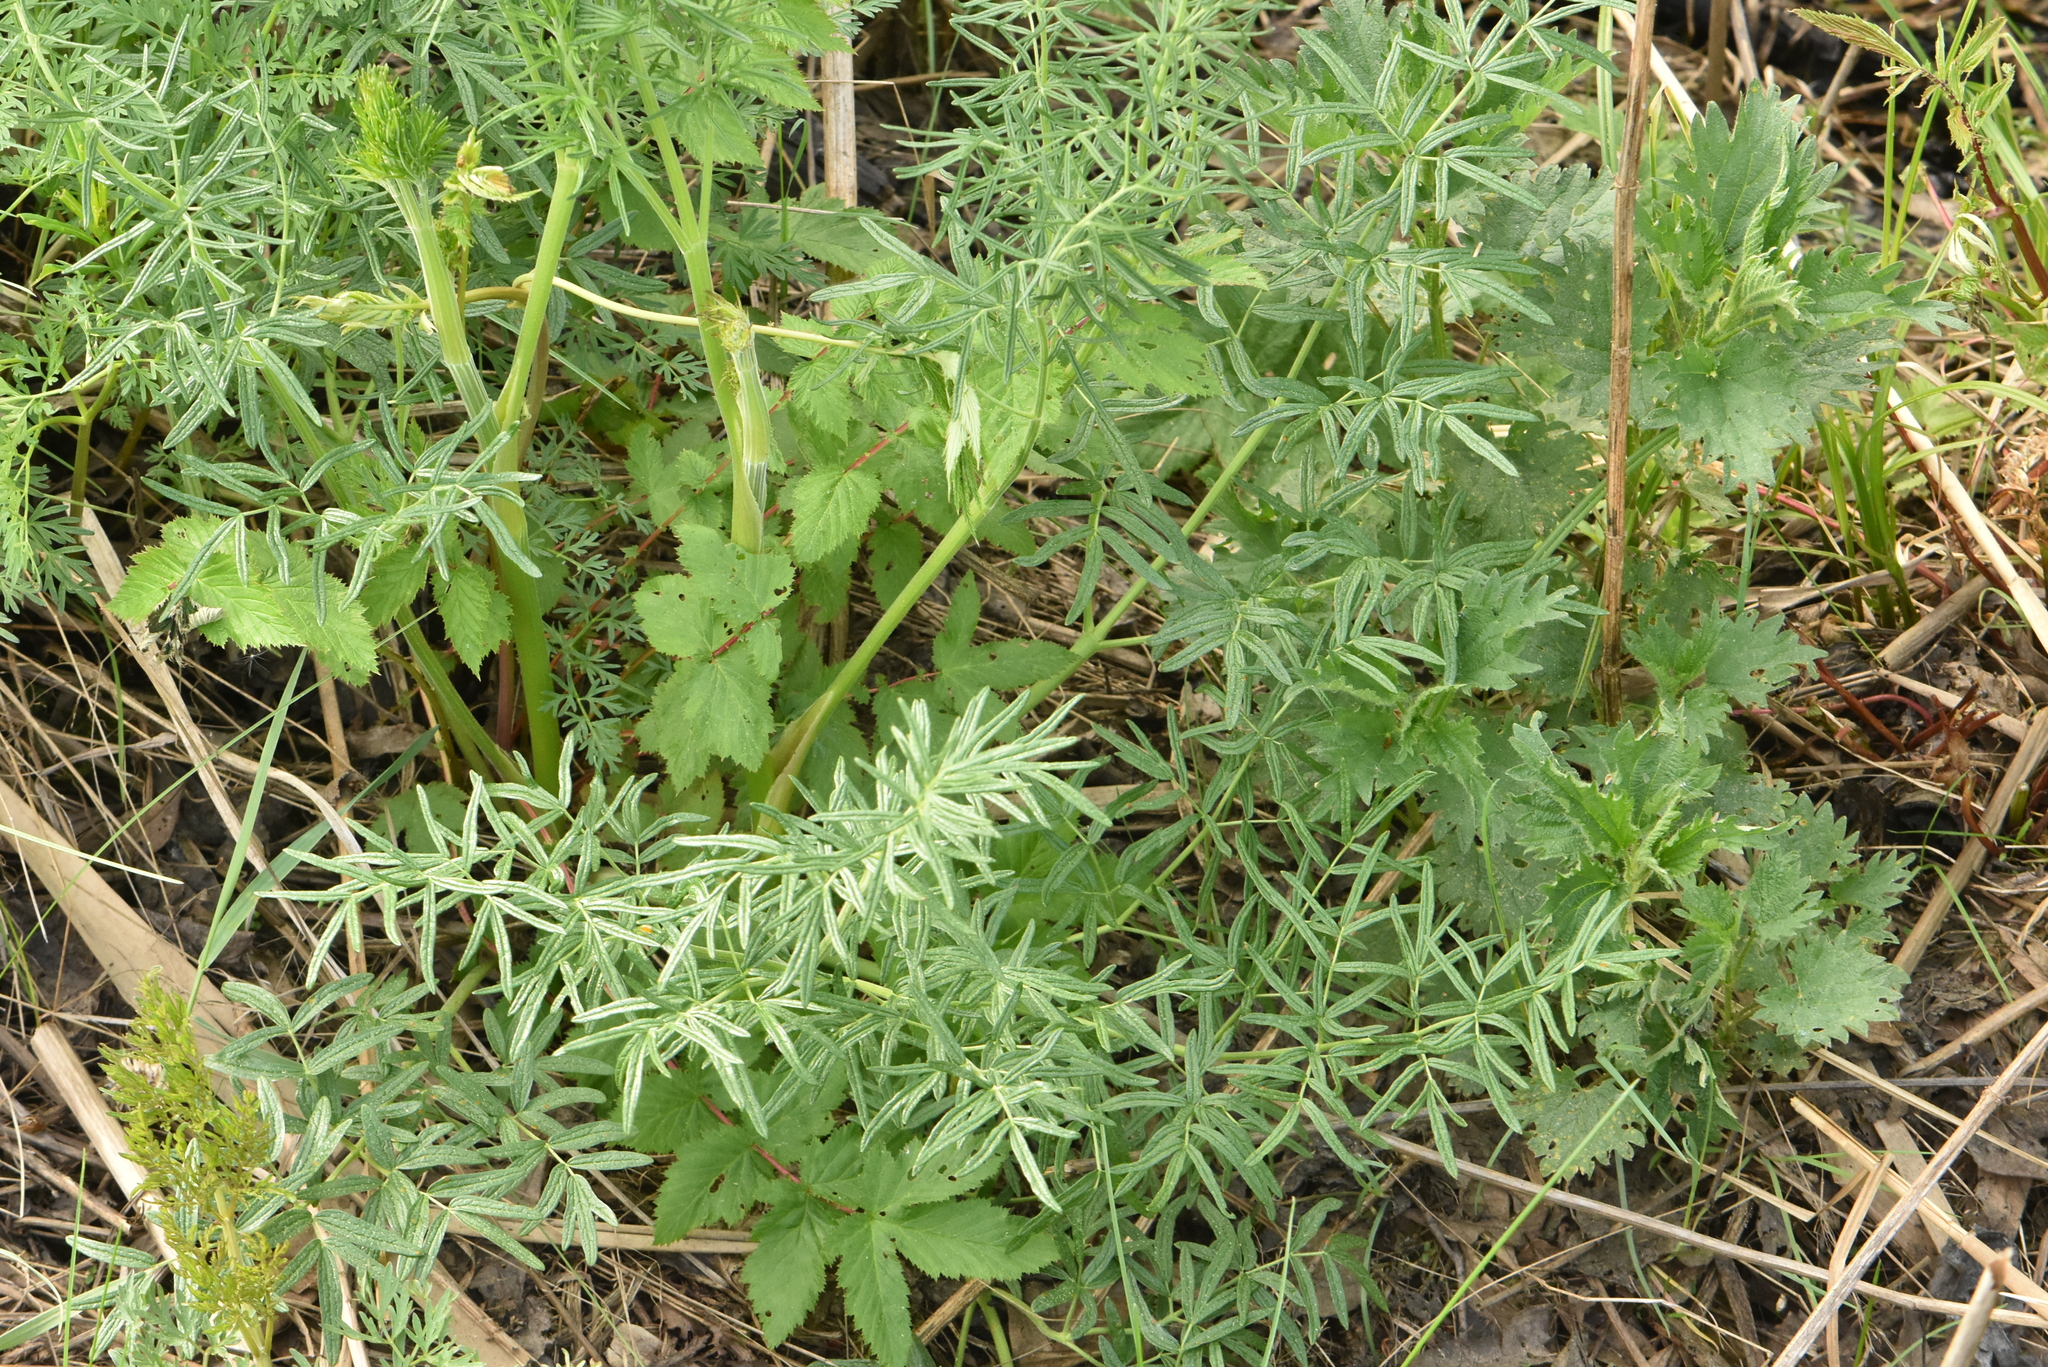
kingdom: Plantae
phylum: Tracheophyta
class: Magnoliopsida
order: Ranunculales
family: Ranunculaceae
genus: Thalictrum
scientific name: Thalictrum lucidum
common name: Shining meadow-rue
